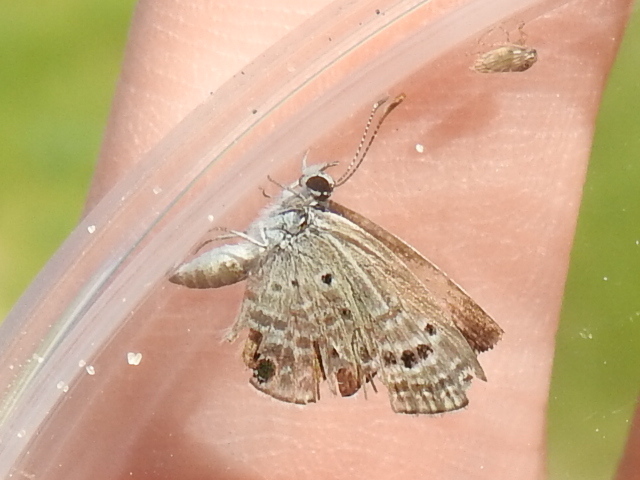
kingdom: Animalia
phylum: Arthropoda
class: Insecta
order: Lepidoptera
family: Lycaenidae
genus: Echinargus
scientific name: Echinargus isola
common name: Reakirt's blue
